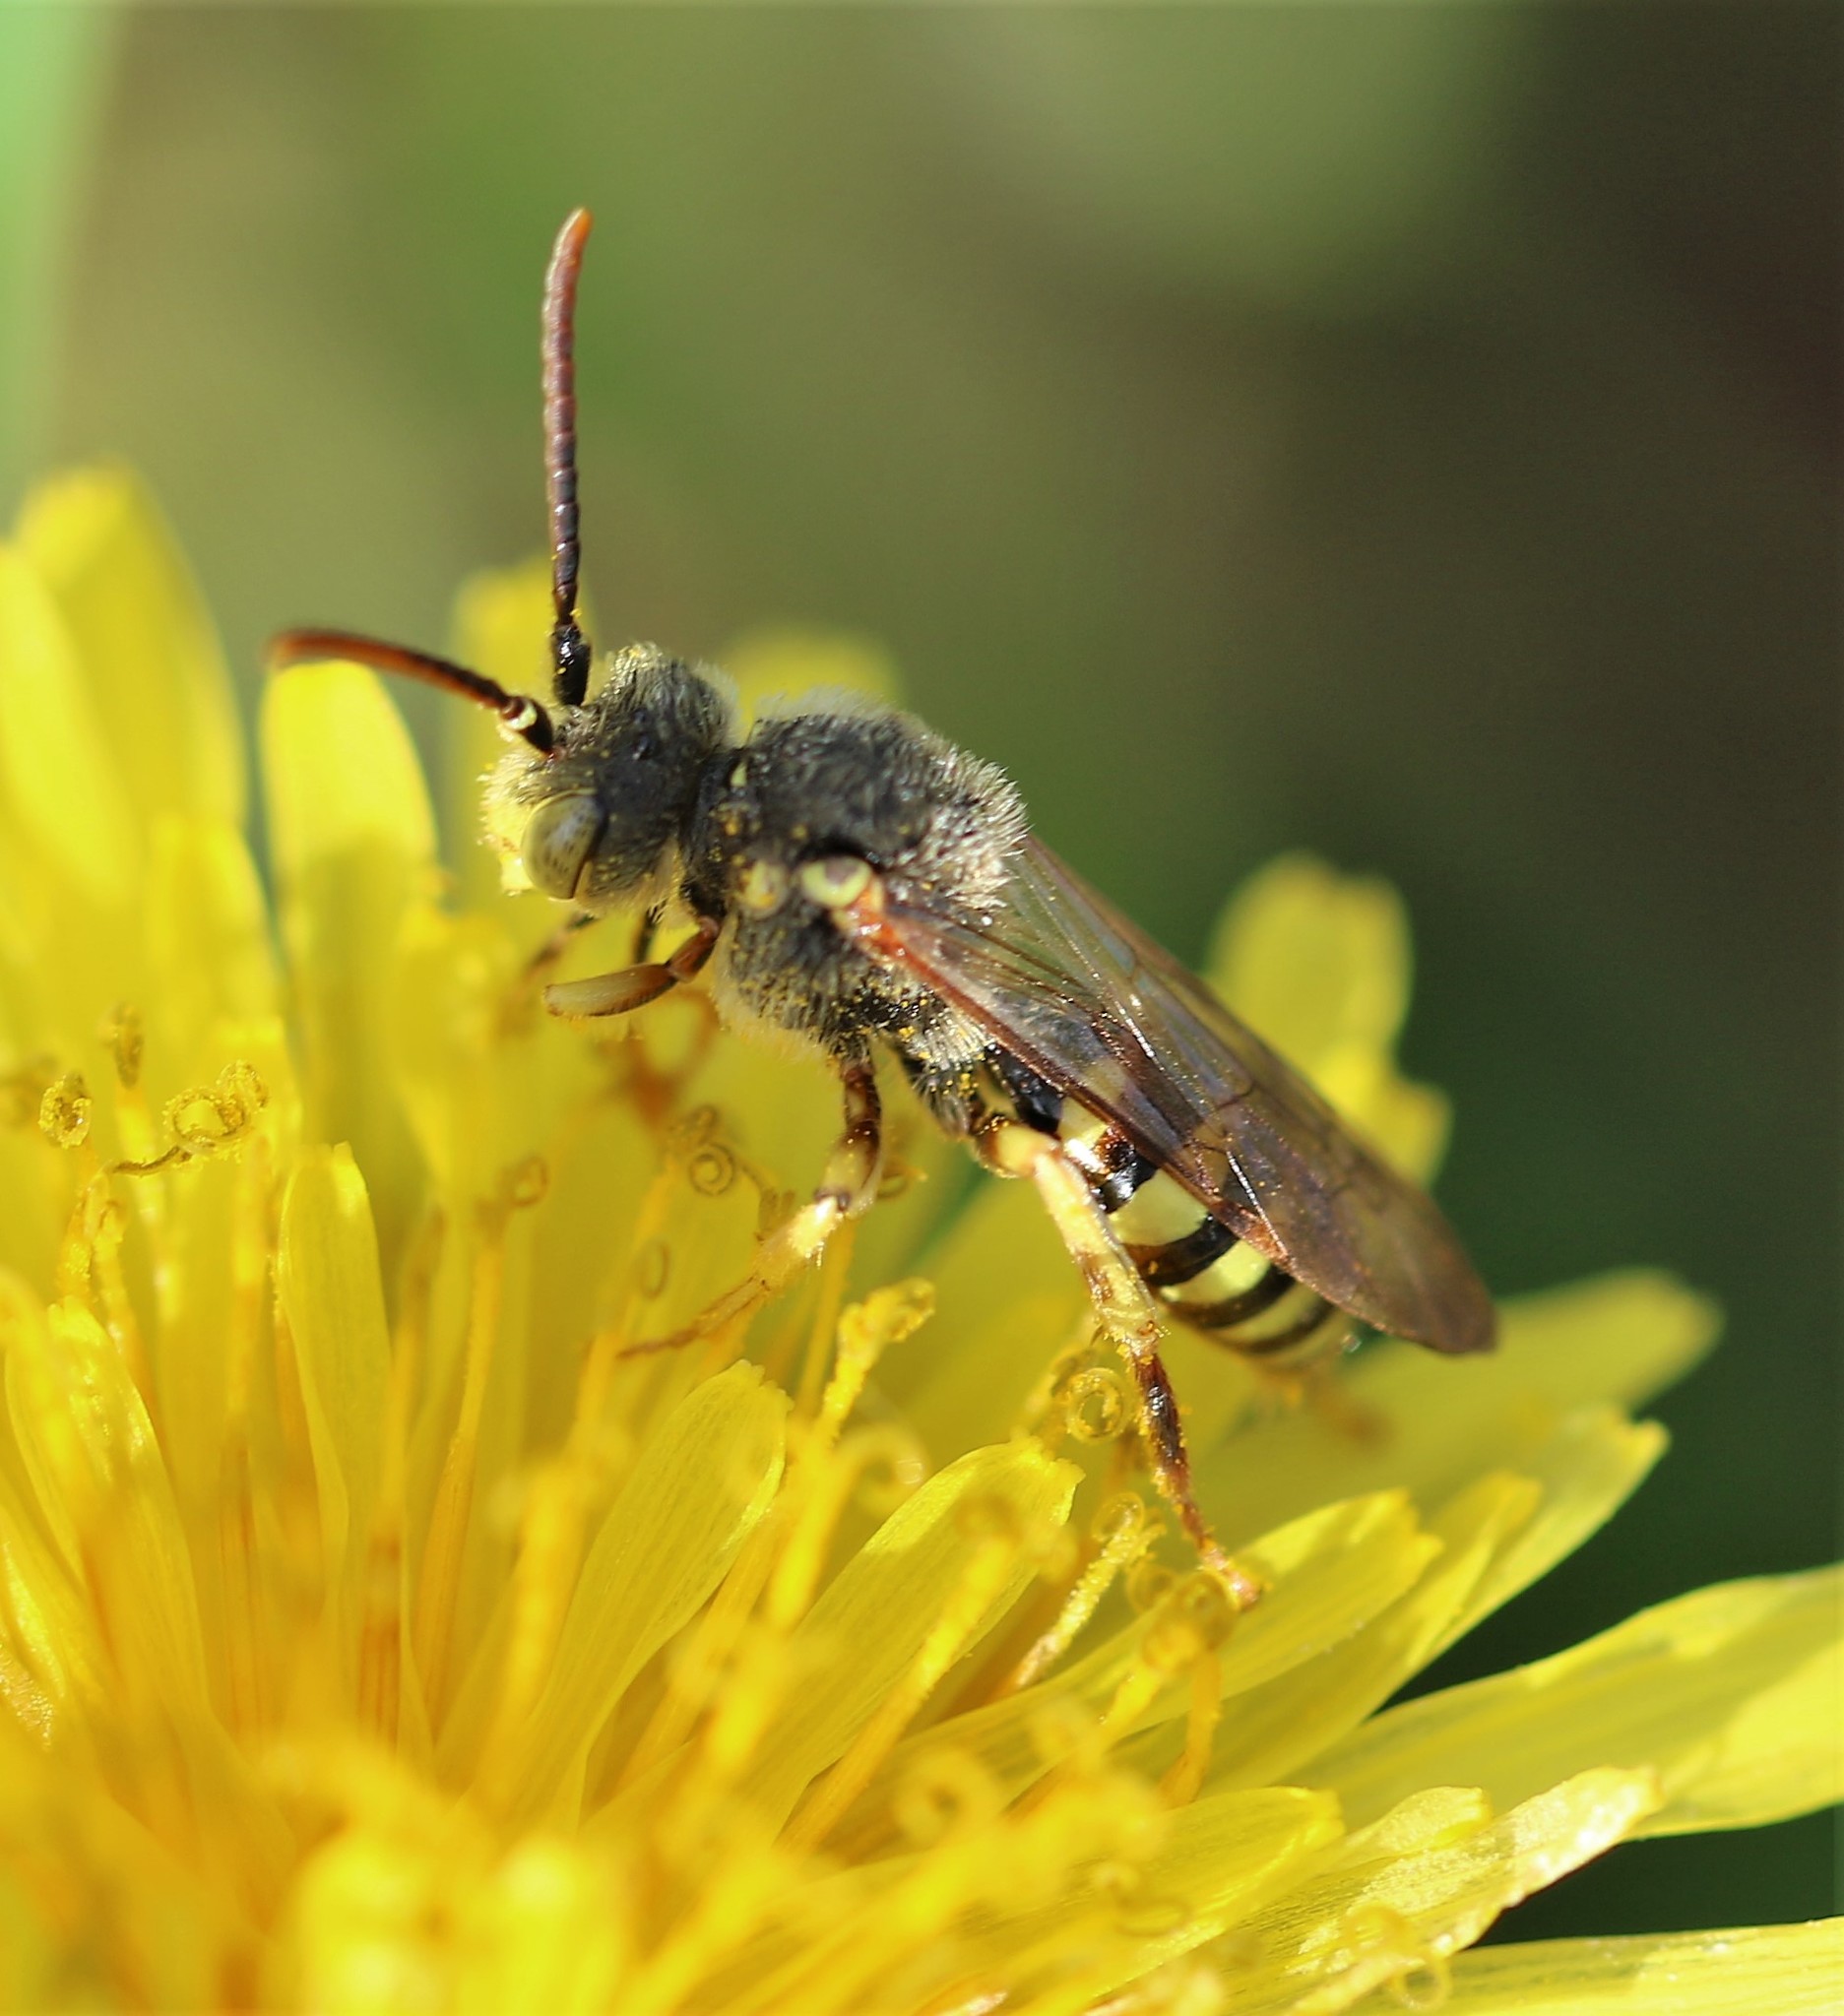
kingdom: Animalia
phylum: Arthropoda
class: Insecta
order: Hymenoptera
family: Apidae
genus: Nomada
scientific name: Nomada luteoloides
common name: Black-and-yellow nomad bee
